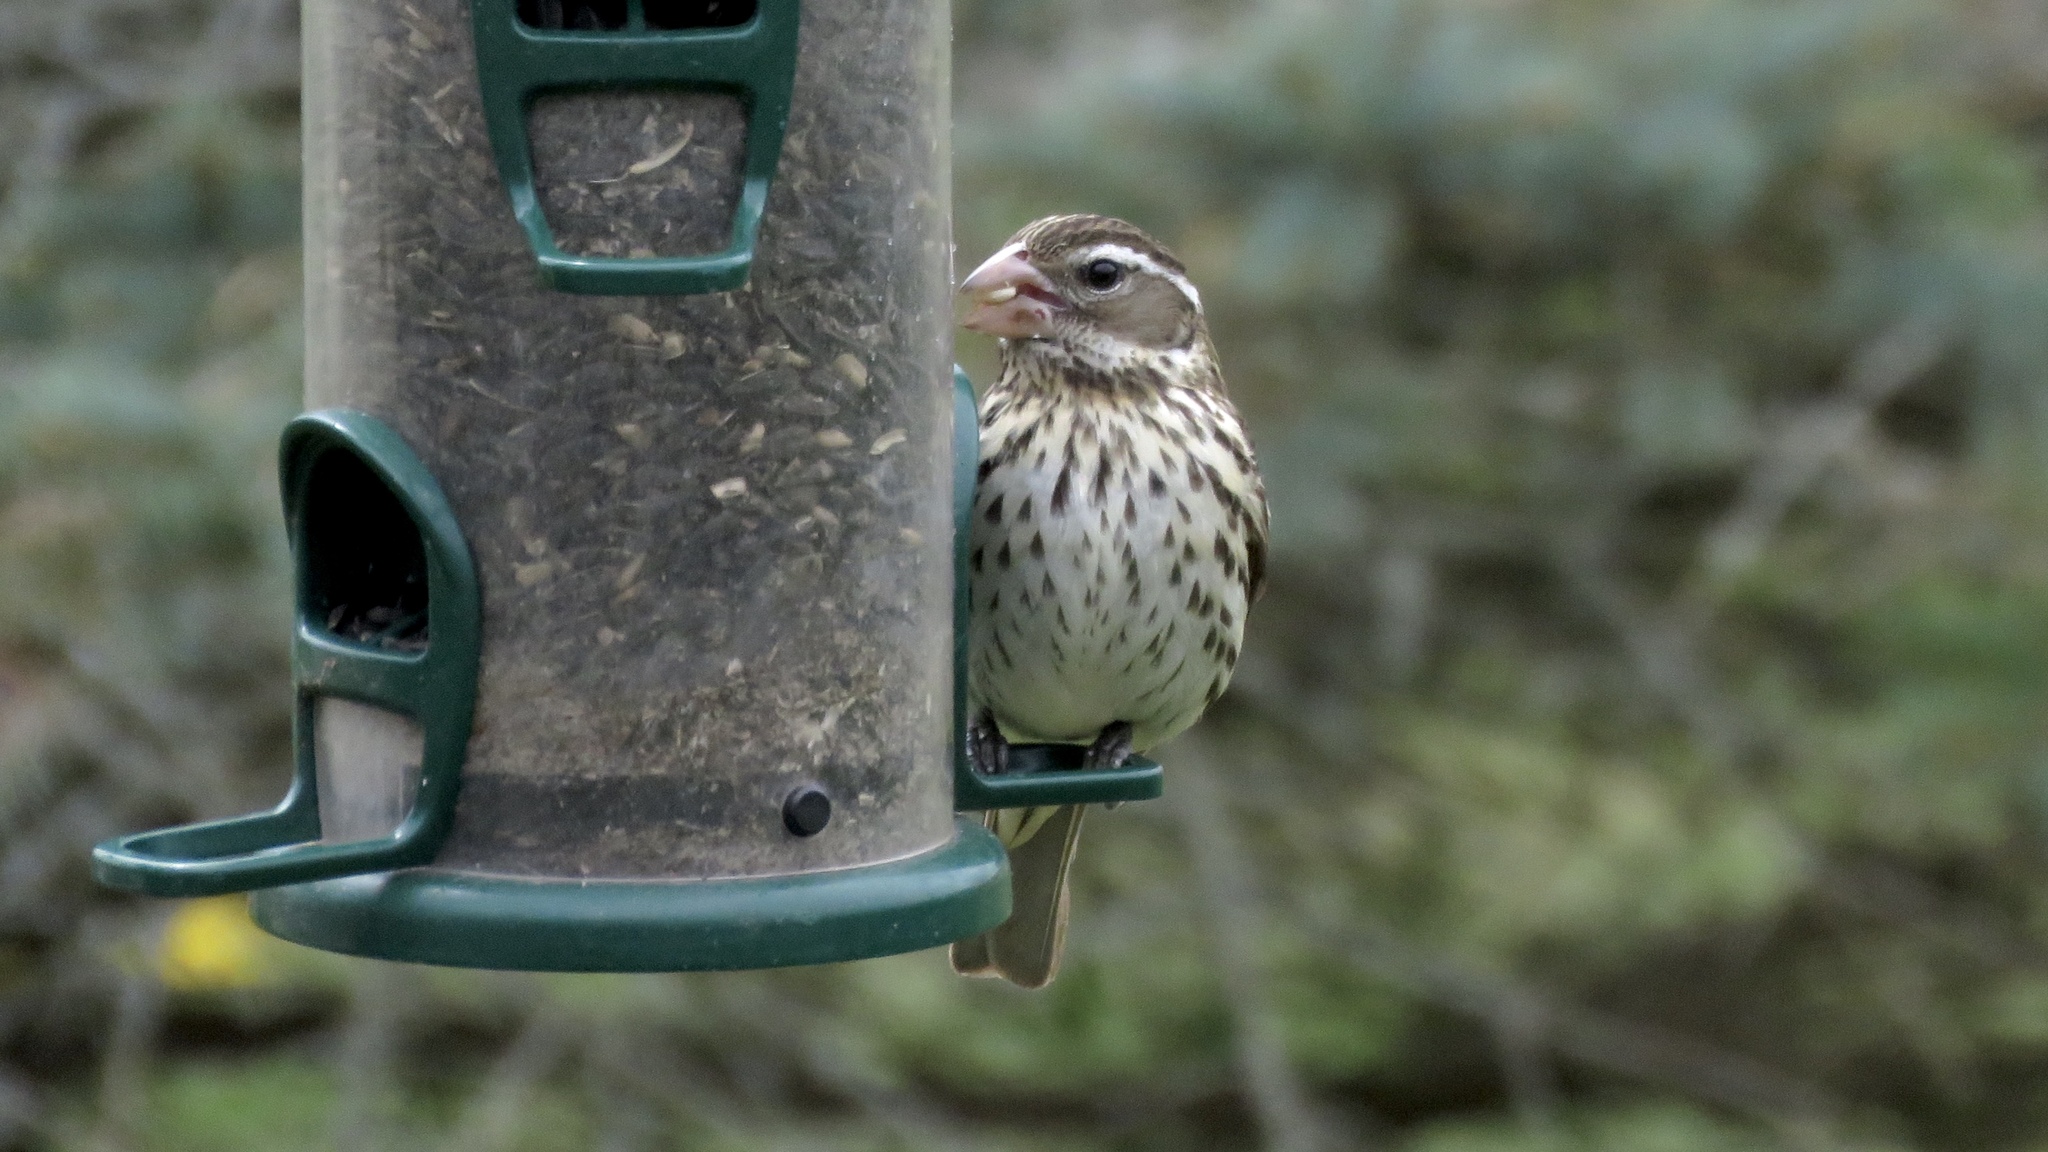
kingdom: Animalia
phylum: Chordata
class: Aves
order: Passeriformes
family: Cardinalidae
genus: Pheucticus
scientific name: Pheucticus ludovicianus
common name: Rose-breasted grosbeak
